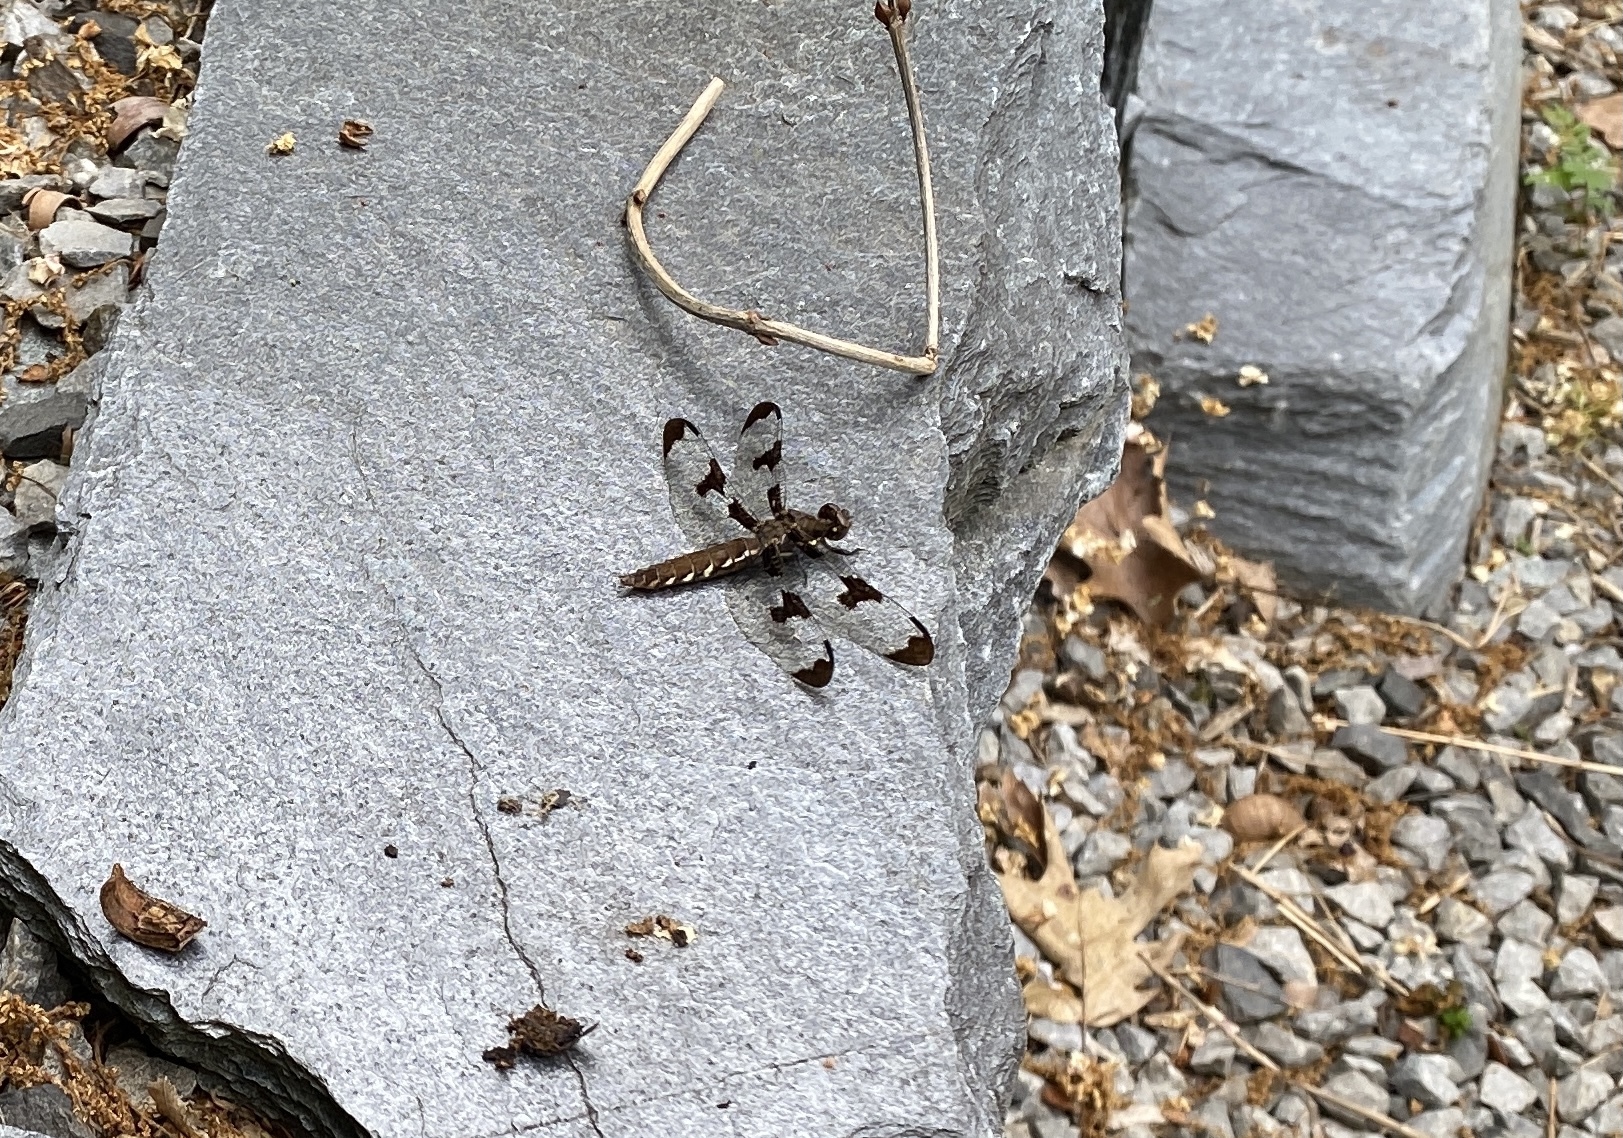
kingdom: Animalia
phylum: Arthropoda
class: Insecta
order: Odonata
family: Libellulidae
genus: Plathemis
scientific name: Plathemis lydia
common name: Common whitetail
